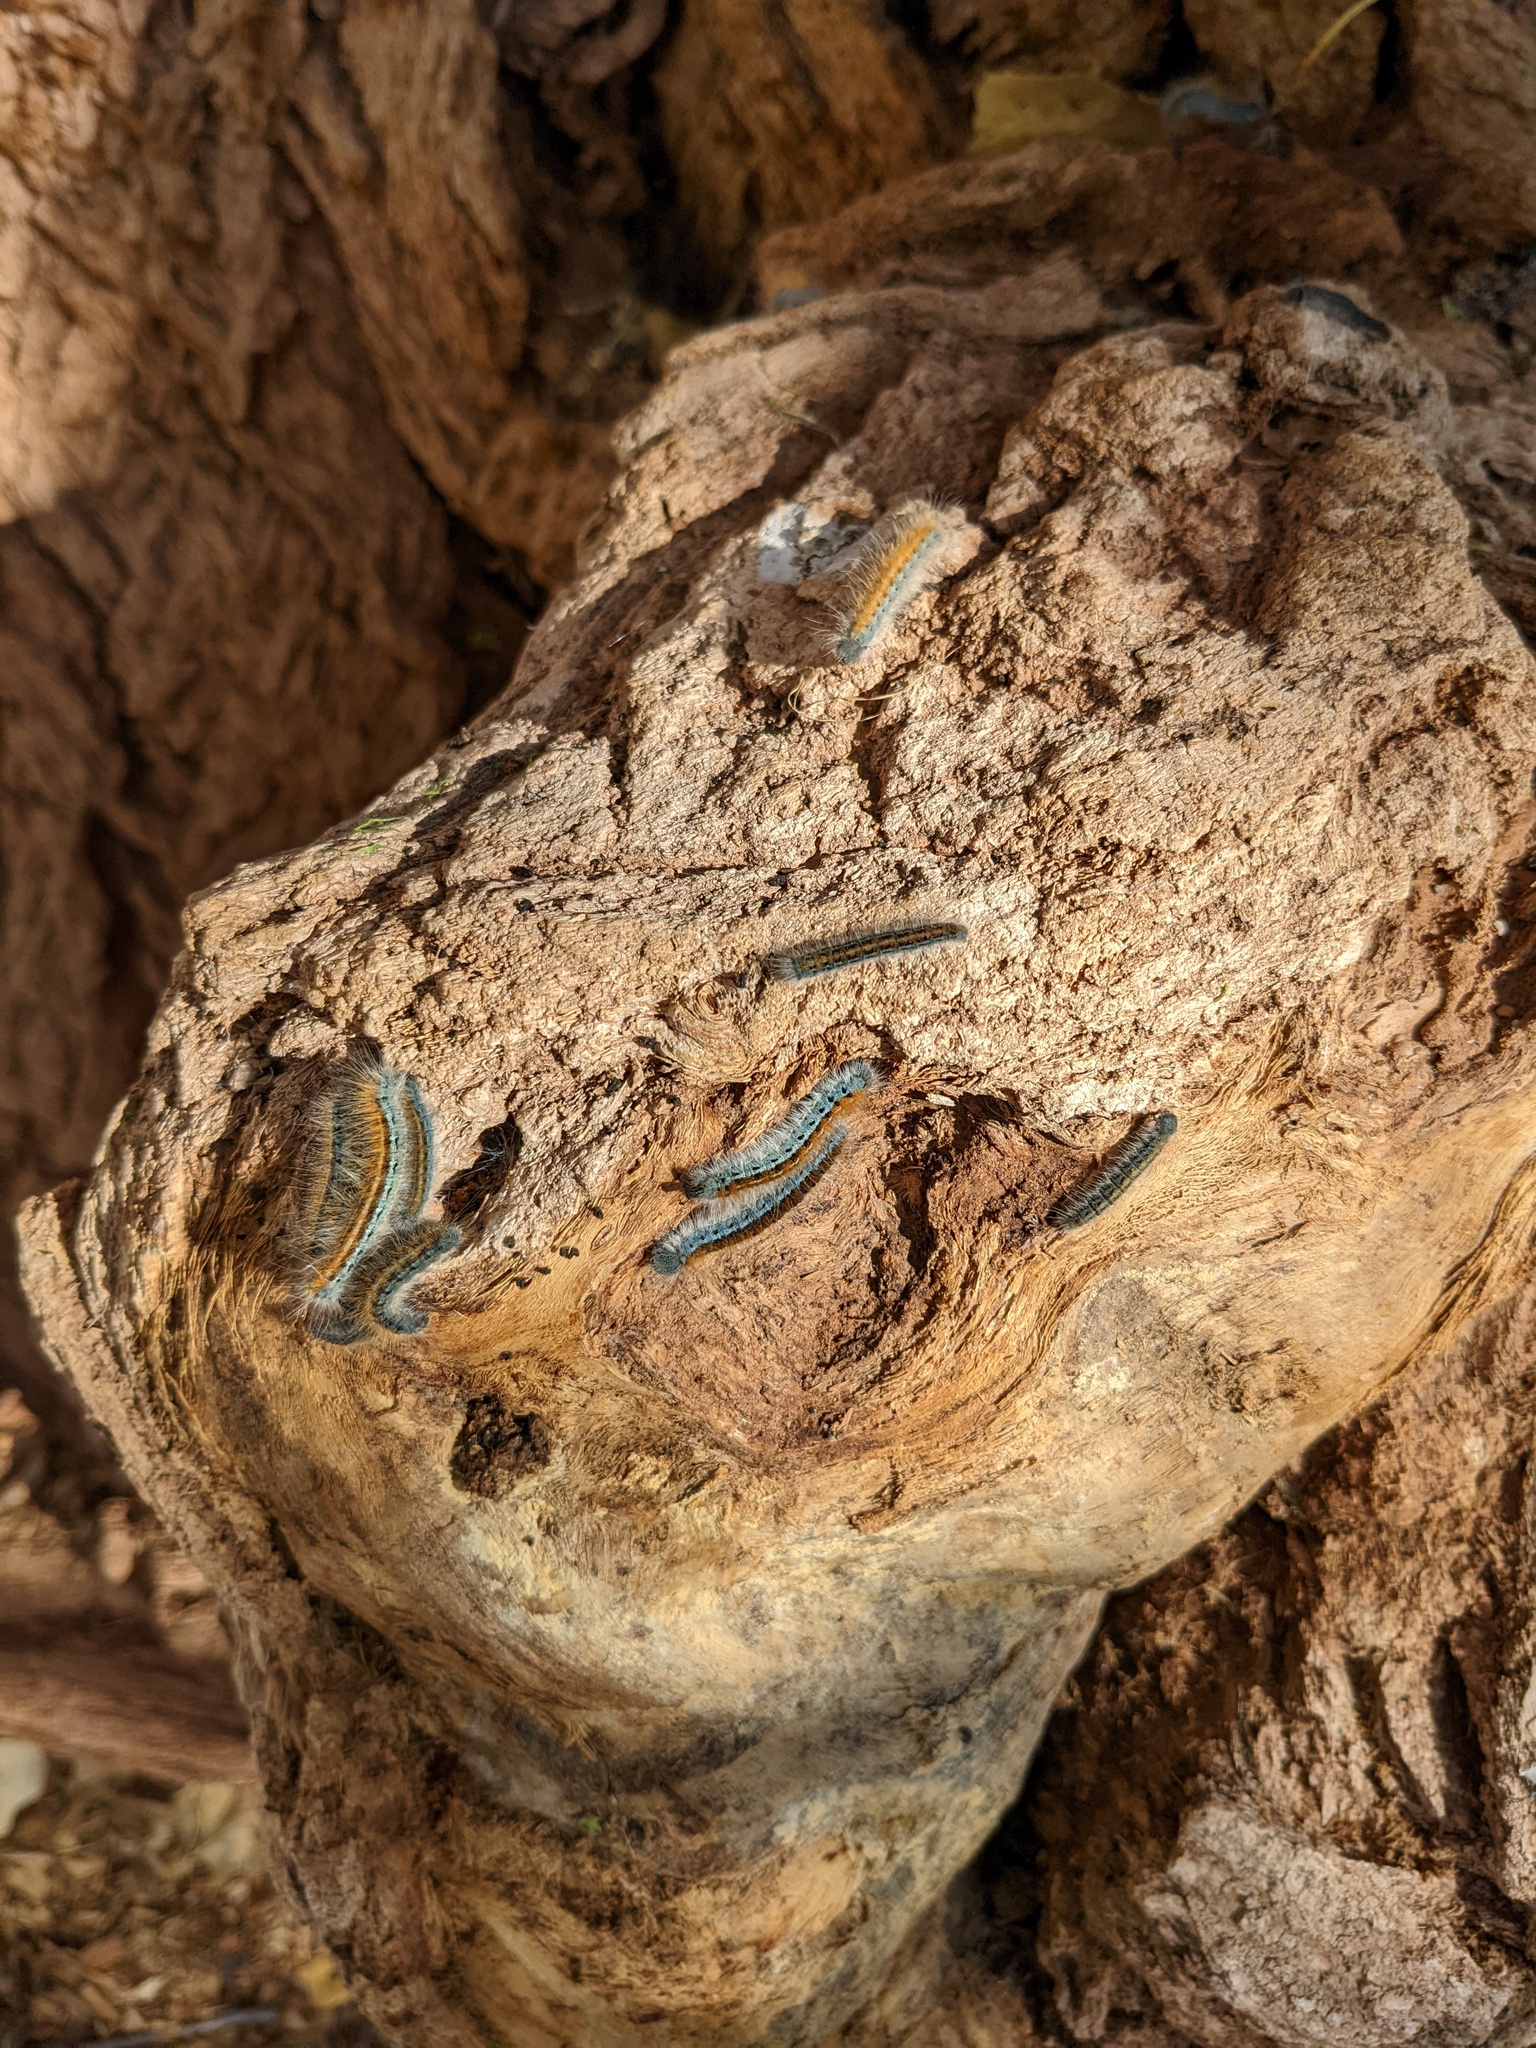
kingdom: Animalia
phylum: Arthropoda
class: Insecta
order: Lepidoptera
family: Lasiocampidae
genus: Malacosoma
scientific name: Malacosoma californica
